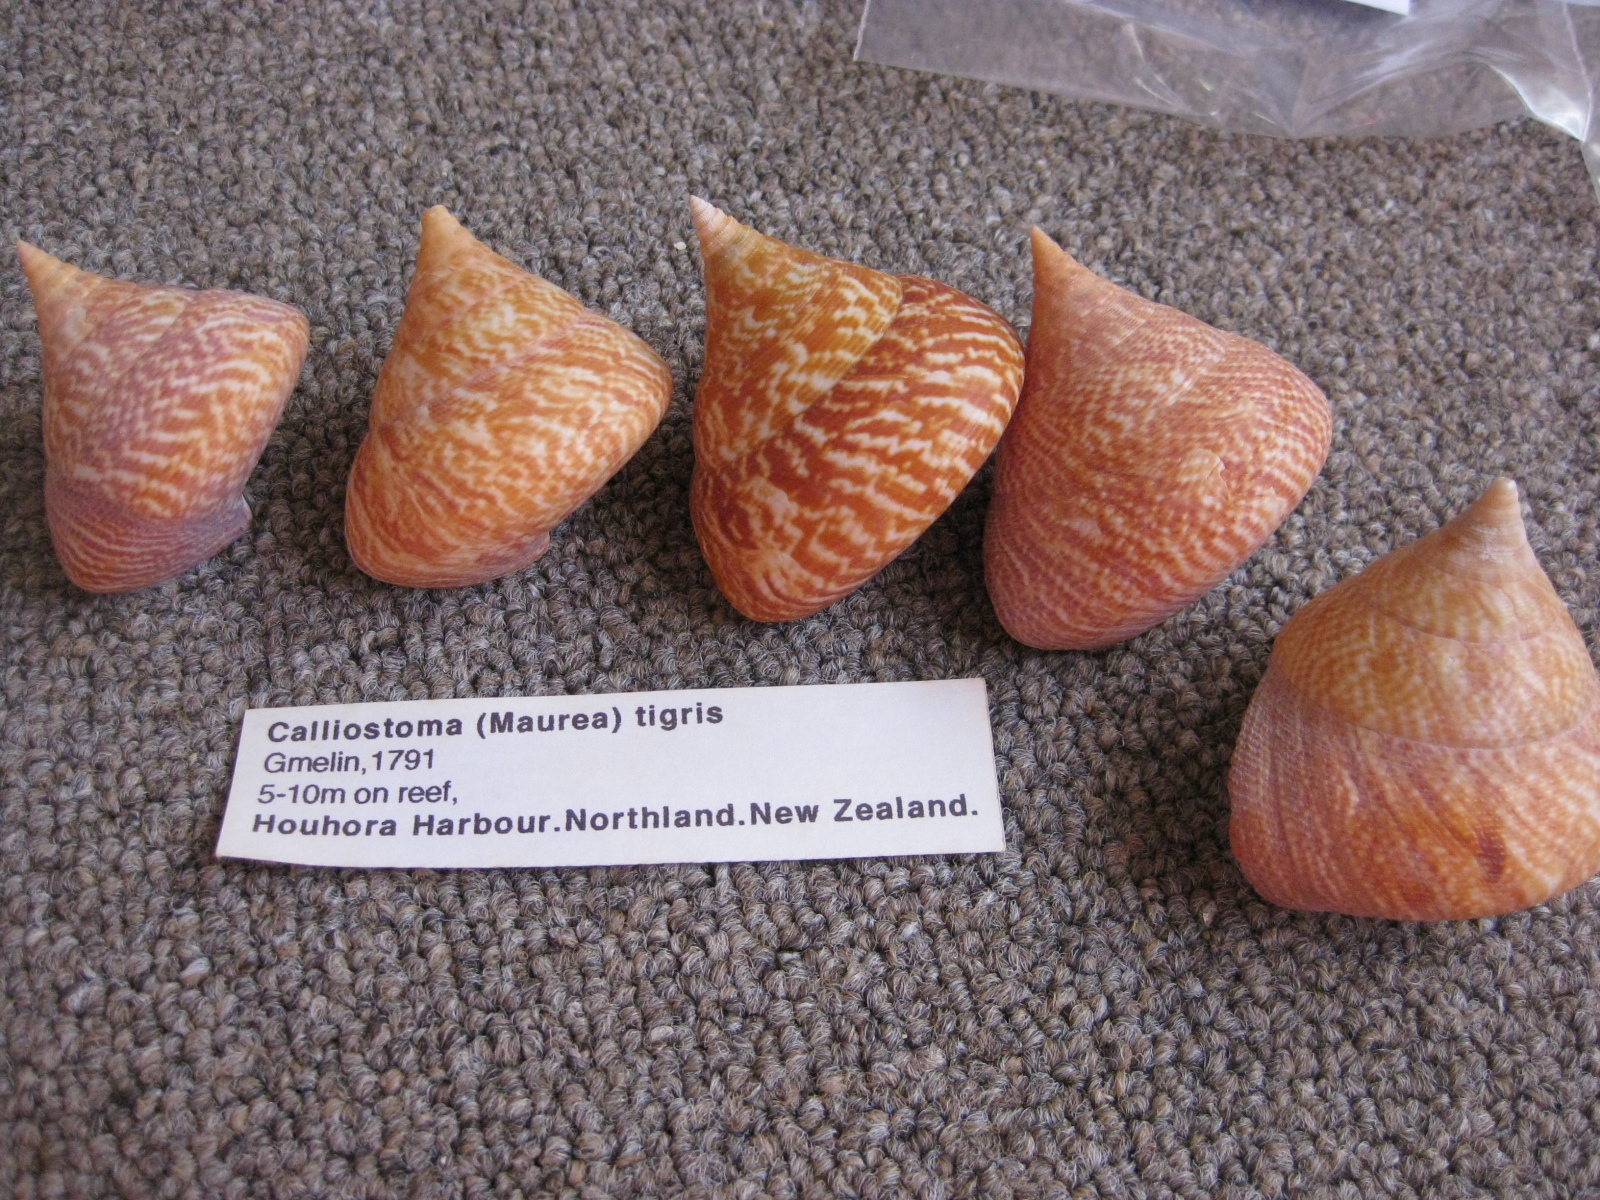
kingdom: Animalia
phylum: Mollusca
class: Gastropoda
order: Trochida
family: Calliostomatidae
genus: Maurea
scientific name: Maurea tigris
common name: Tiger maurea
